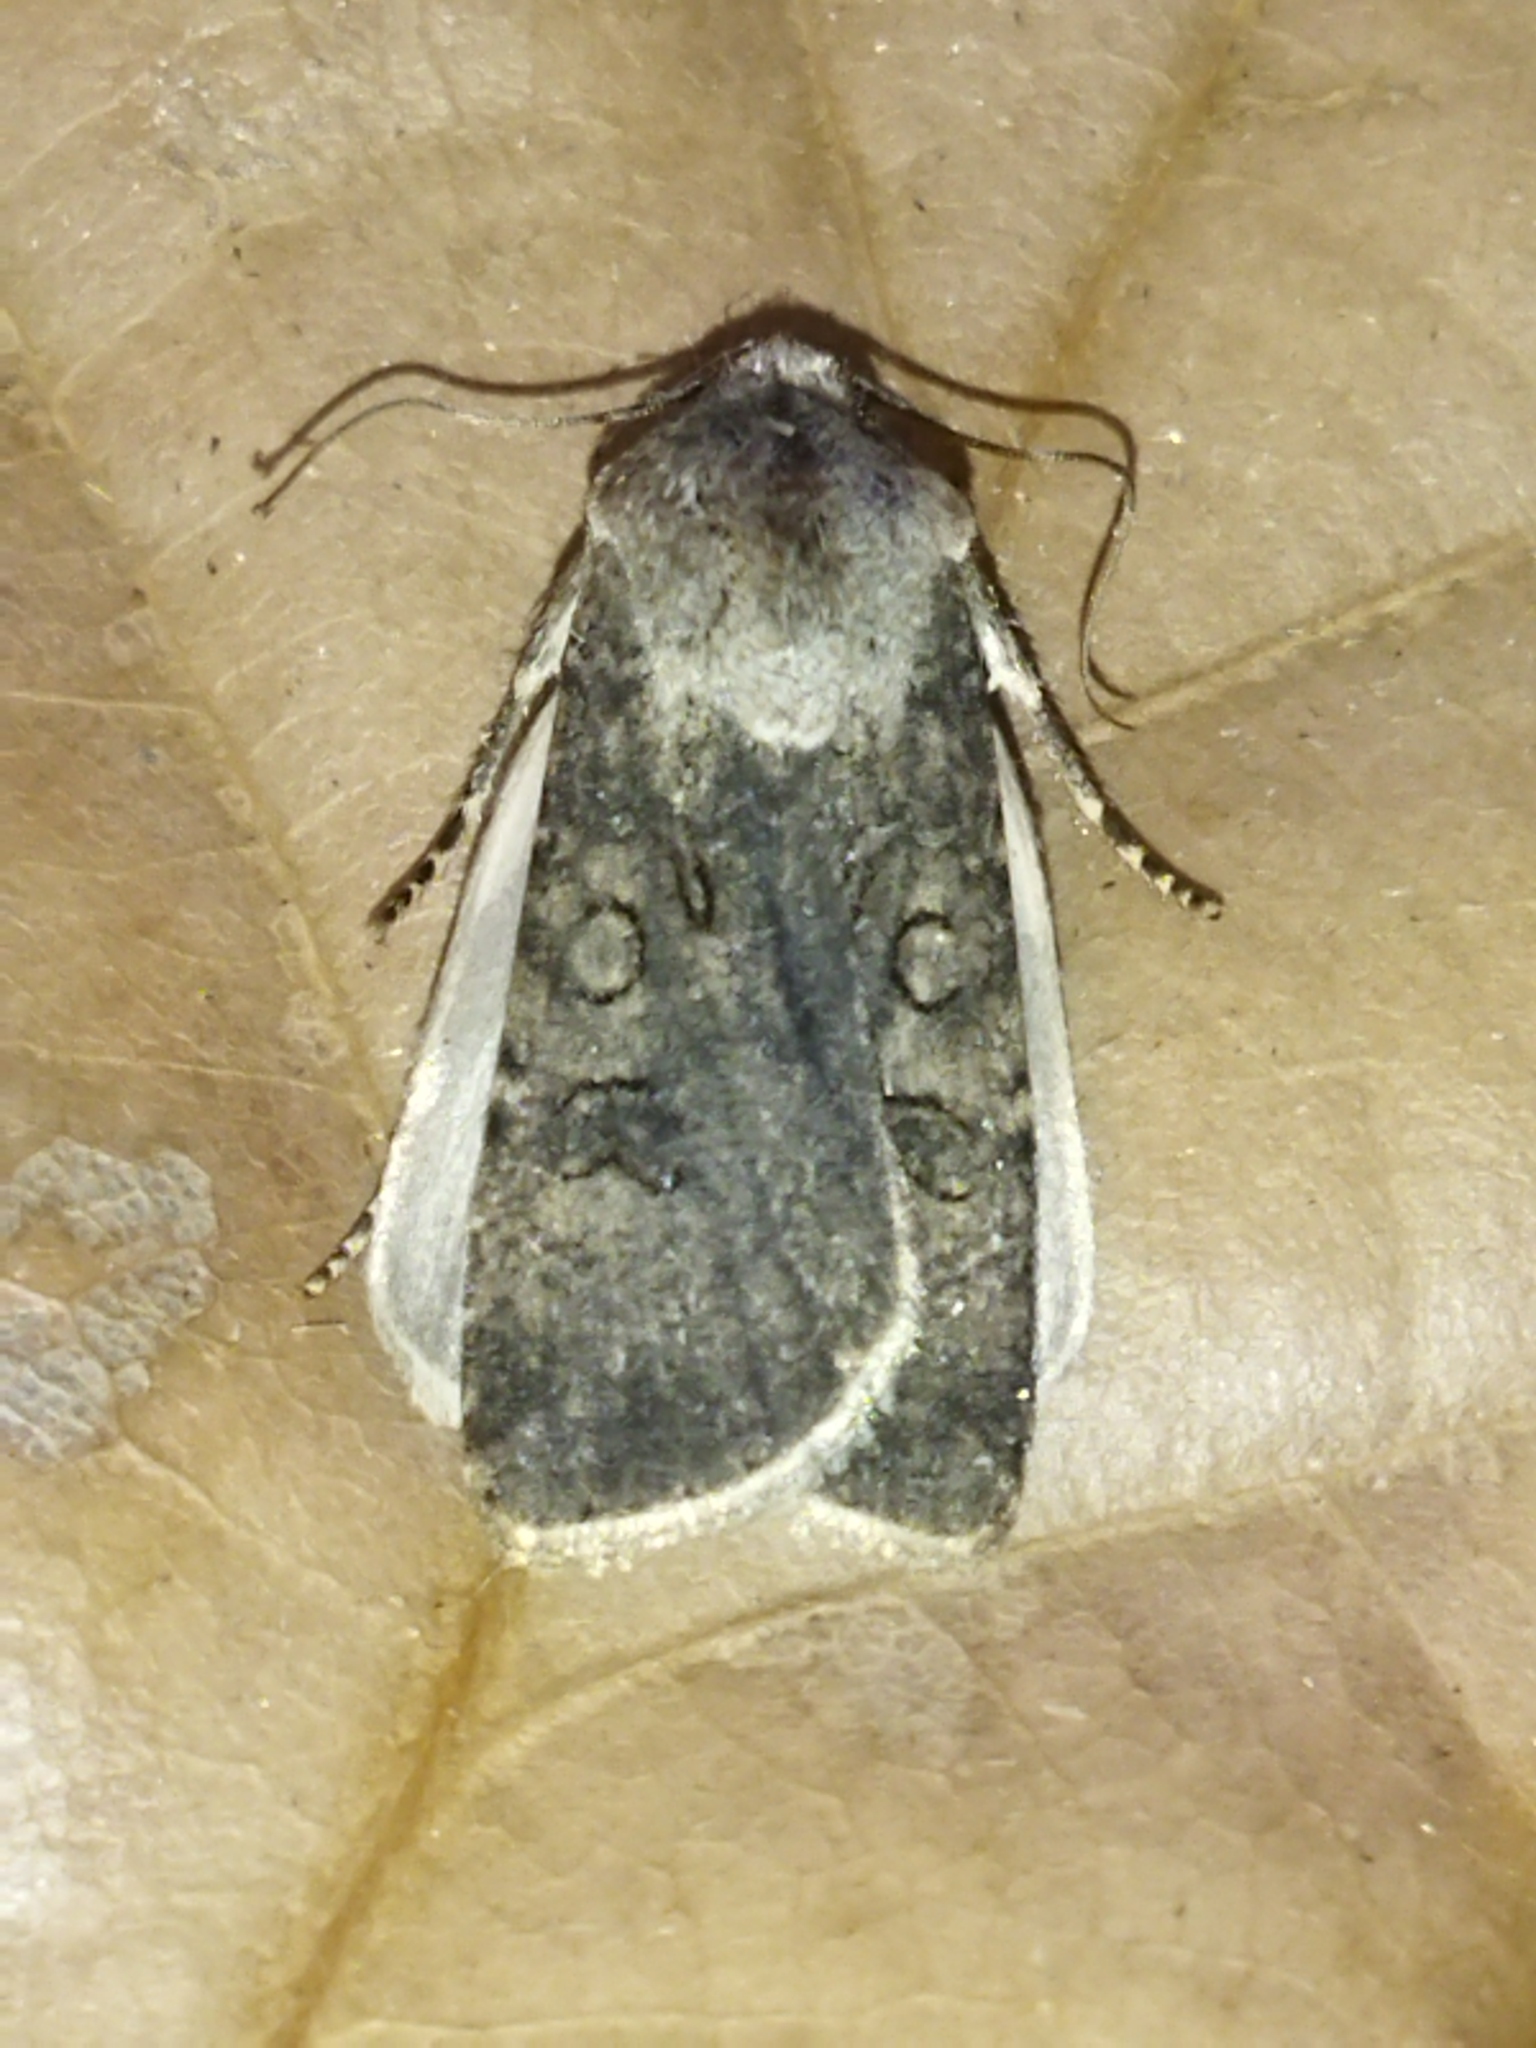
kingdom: Animalia
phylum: Arthropoda
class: Insecta
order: Lepidoptera
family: Noctuidae
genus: Agrotis
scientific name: Agrotis segetum
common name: Turnip moth
